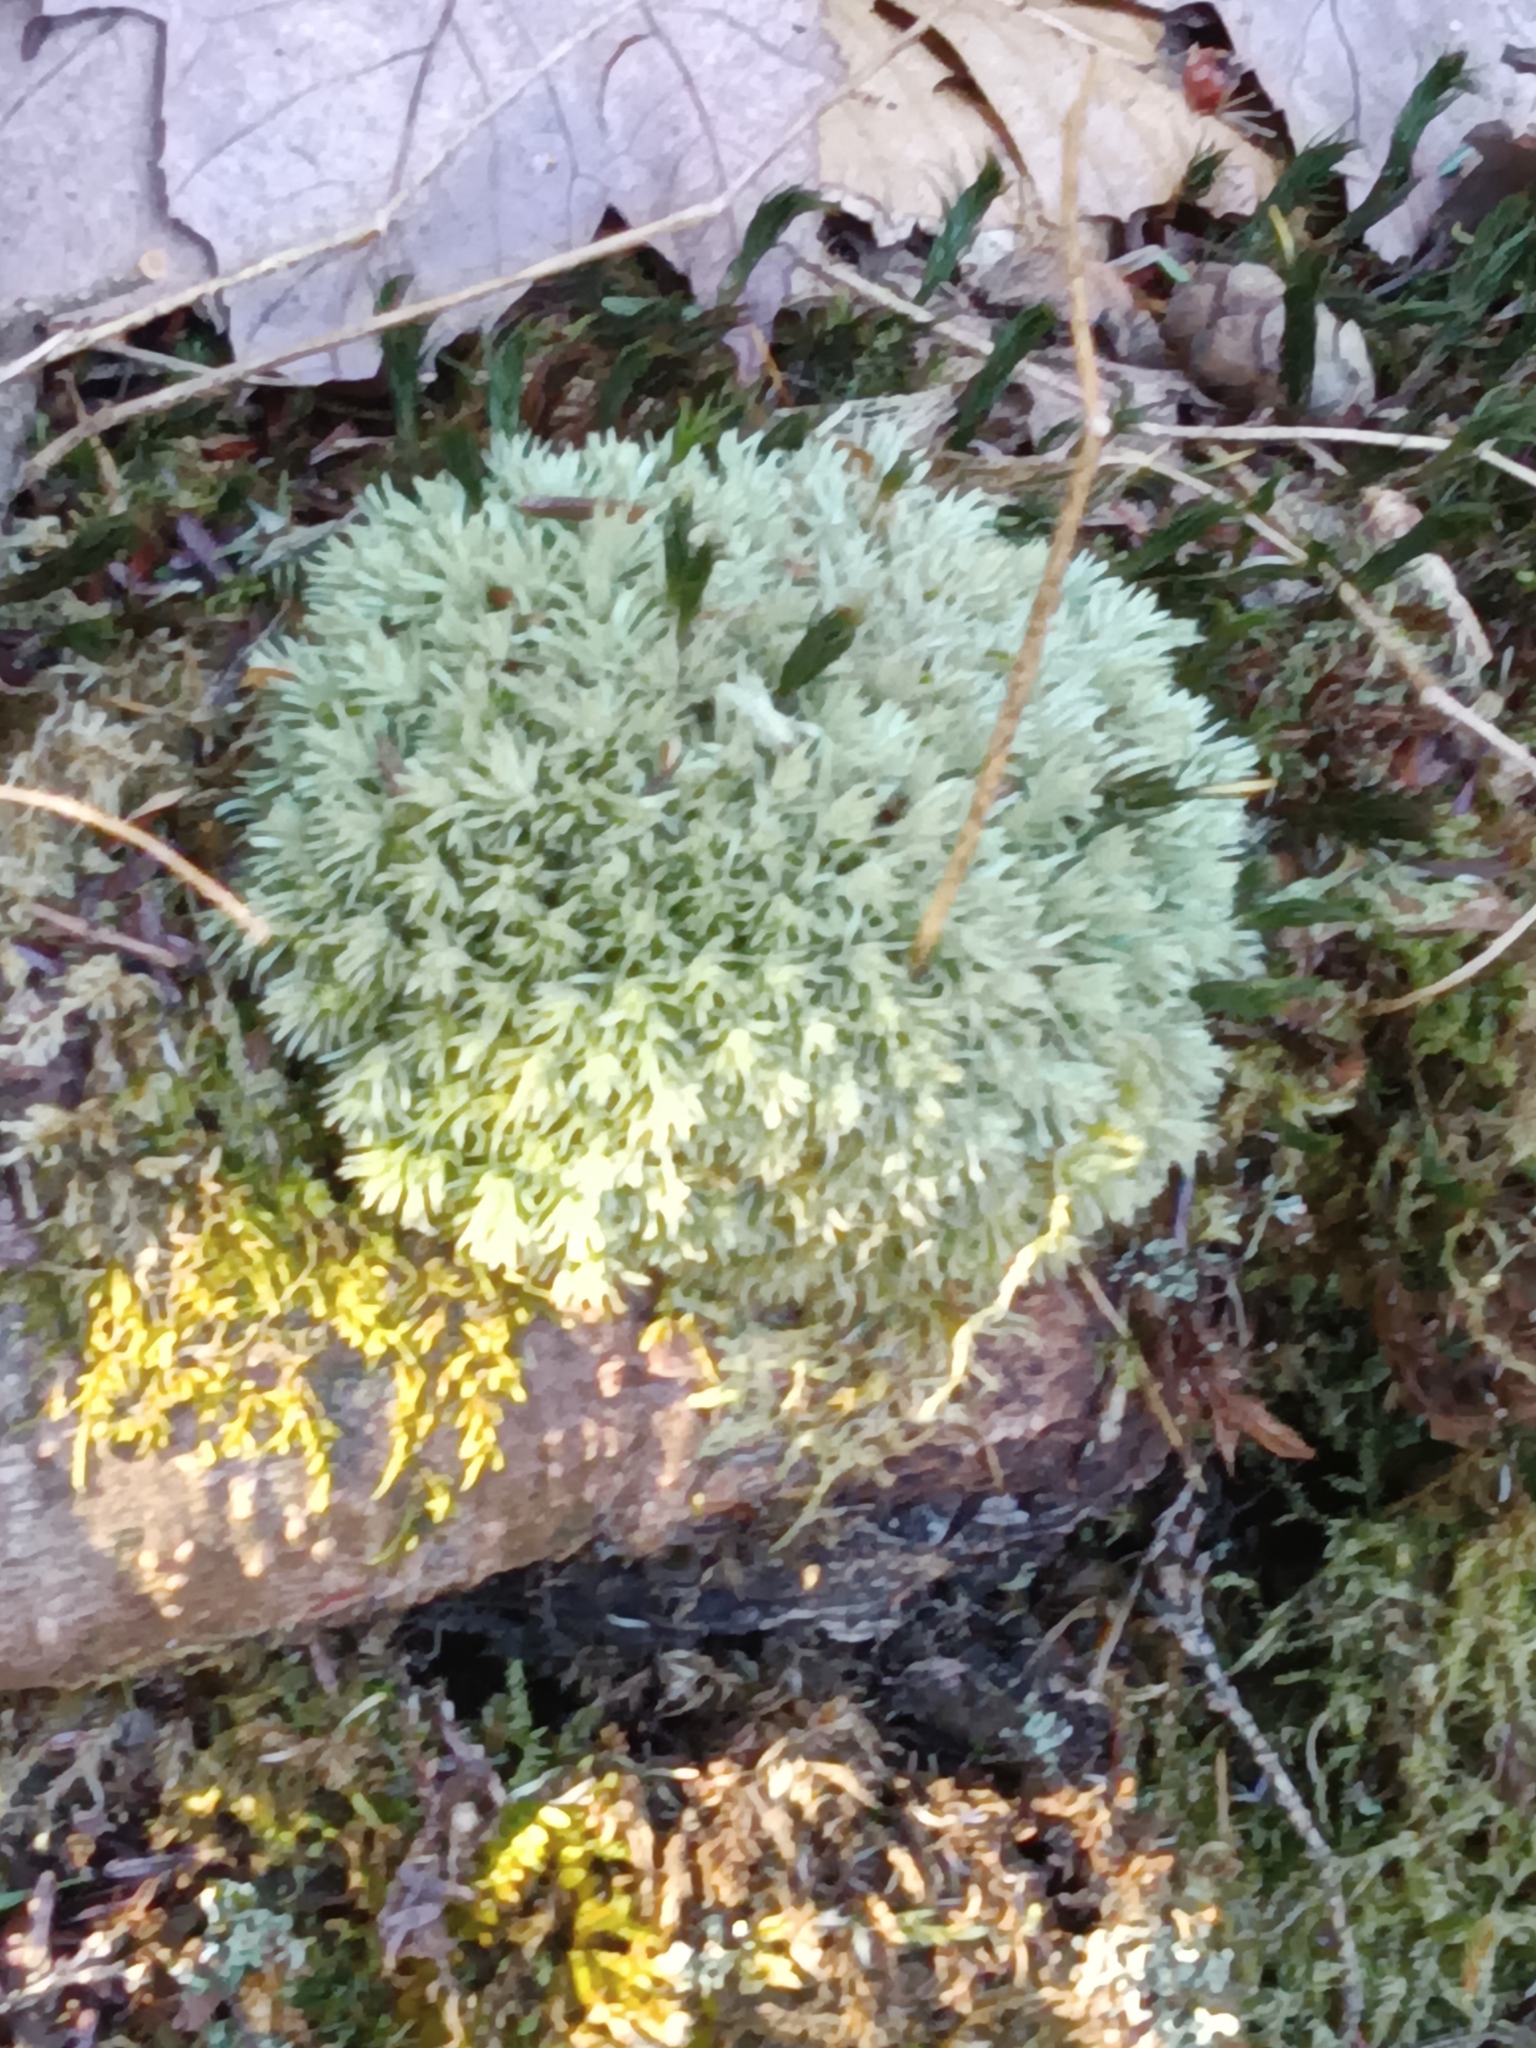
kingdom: Plantae
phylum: Bryophyta
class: Bryopsida
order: Dicranales
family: Leucobryaceae
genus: Leucobryum
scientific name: Leucobryum glaucum
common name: Large white-moss
